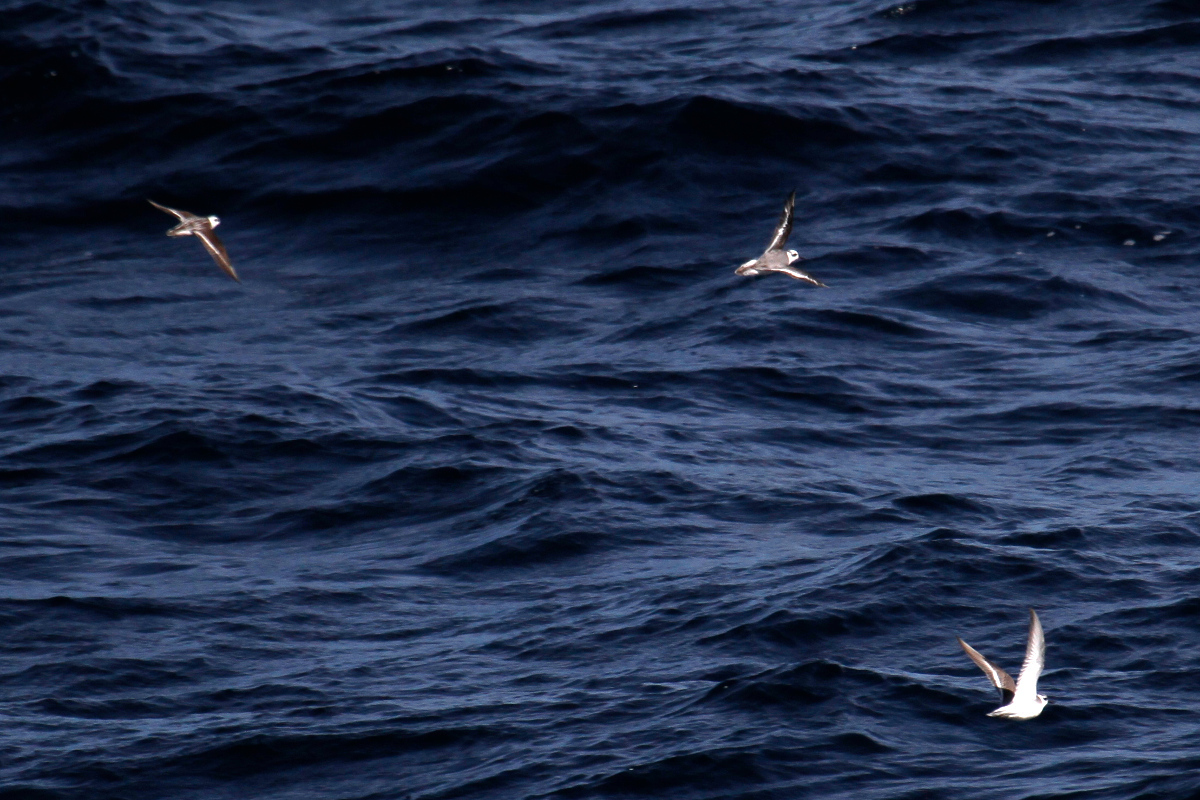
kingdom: Animalia
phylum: Chordata
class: Aves
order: Charadriiformes
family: Scolopacidae
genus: Phalaropus
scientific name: Phalaropus lobatus
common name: Red-necked phalarope
